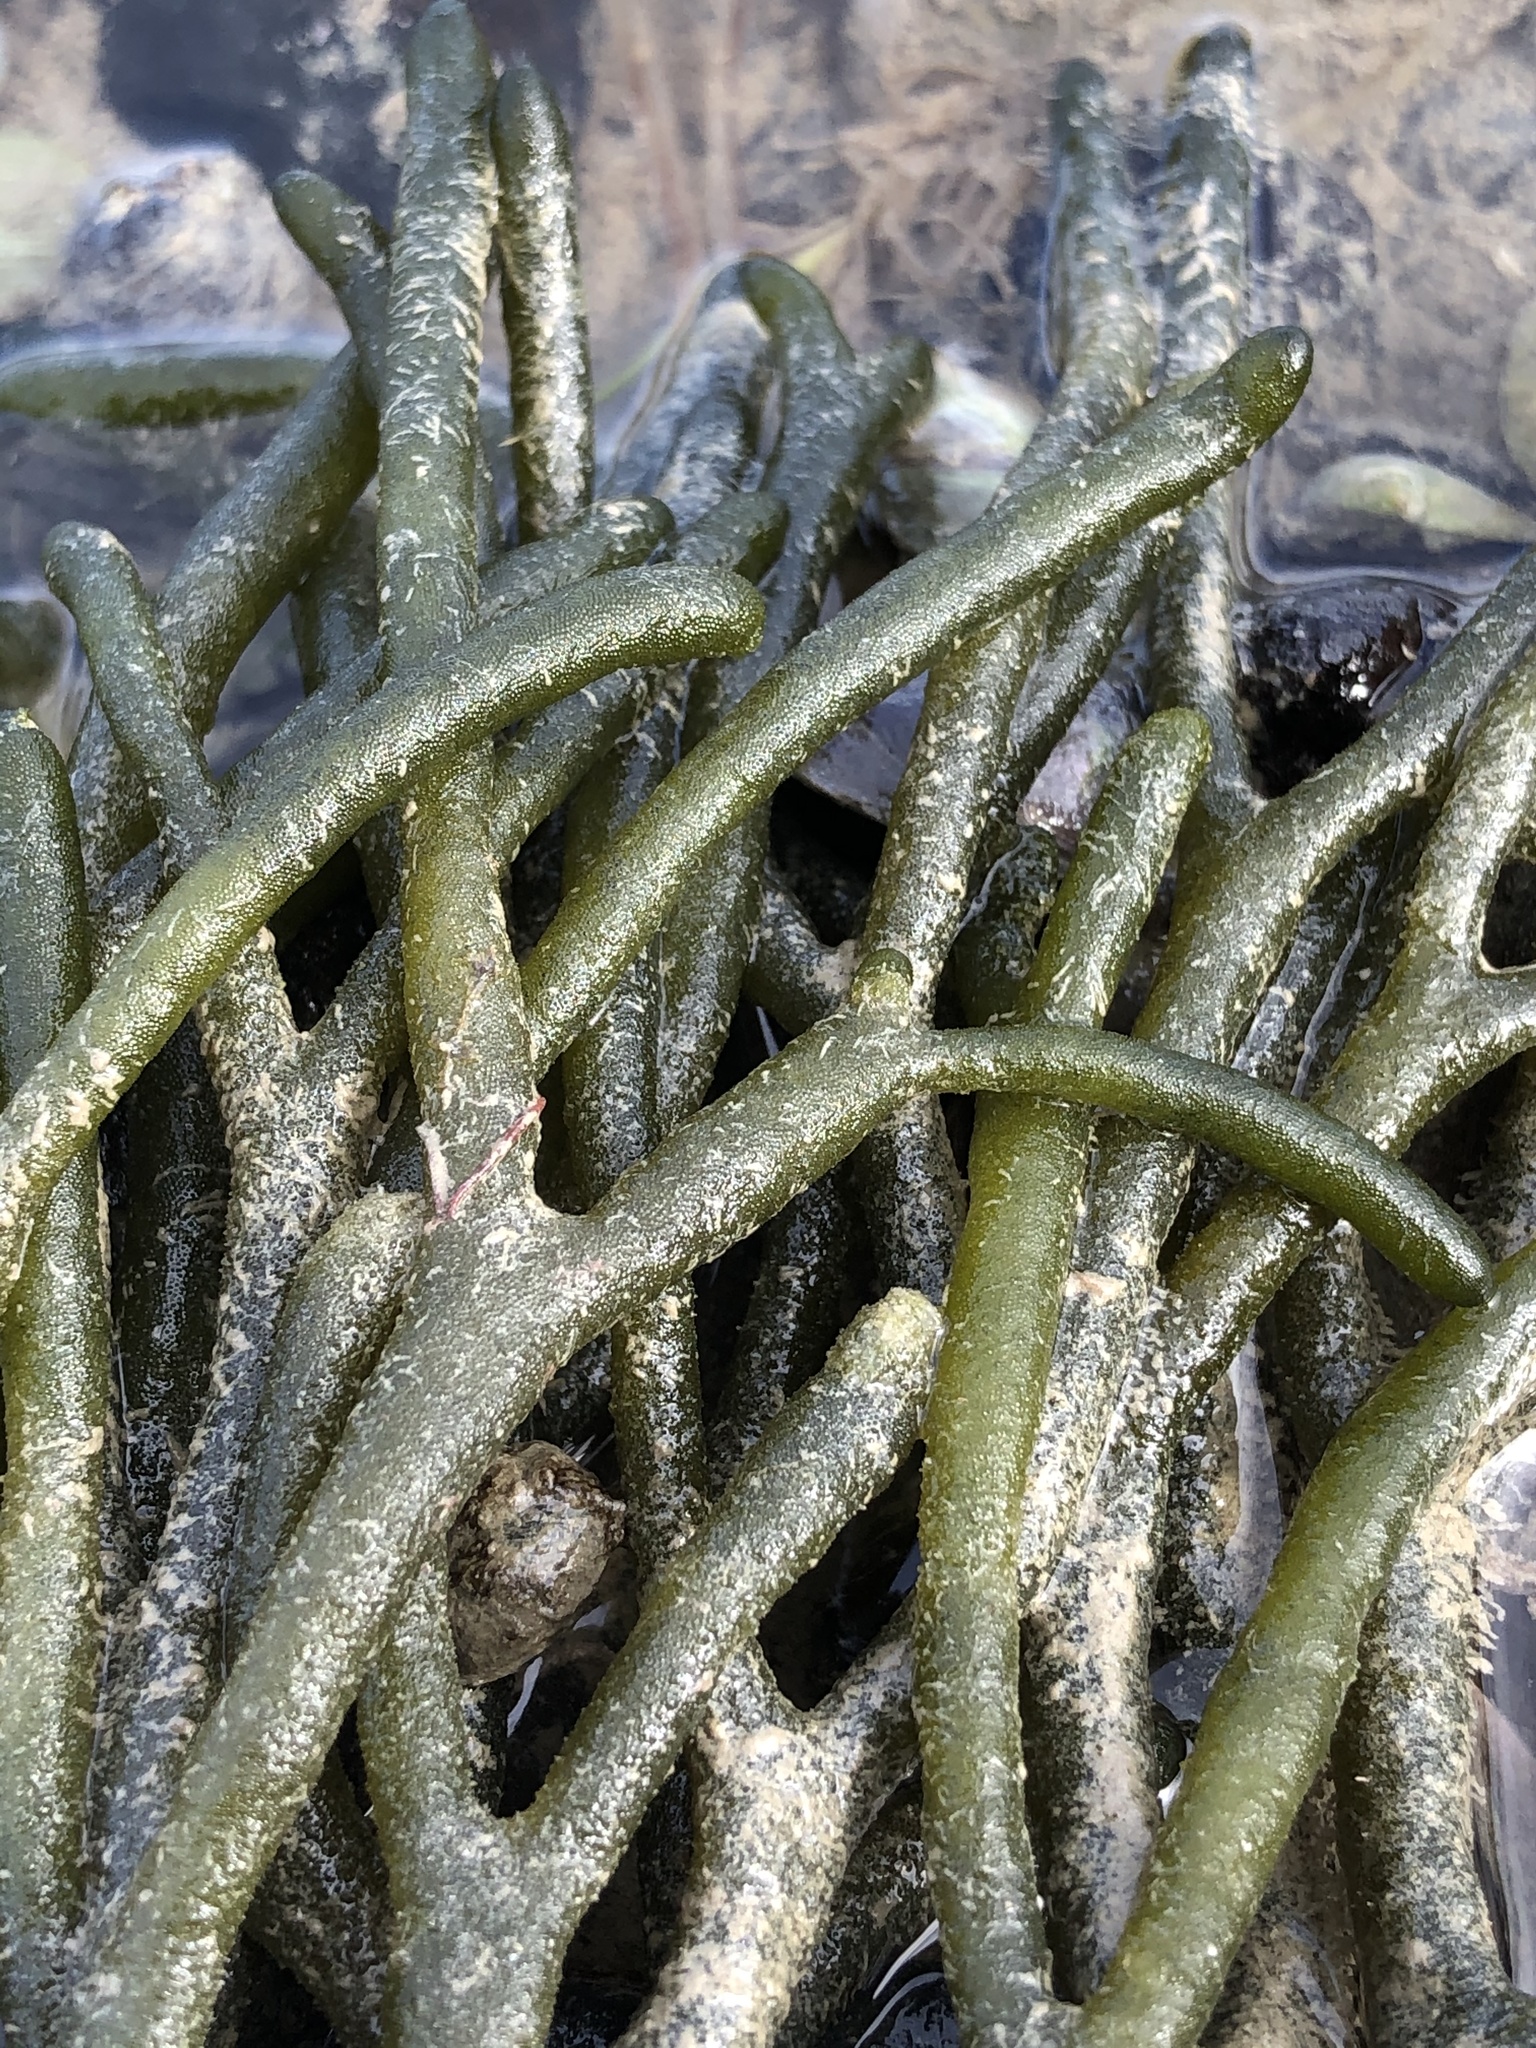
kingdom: Plantae
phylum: Chlorophyta
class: Ulvophyceae
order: Bryopsidales
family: Codiaceae
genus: Codium
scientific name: Codium fragile
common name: Dead man's fingers
